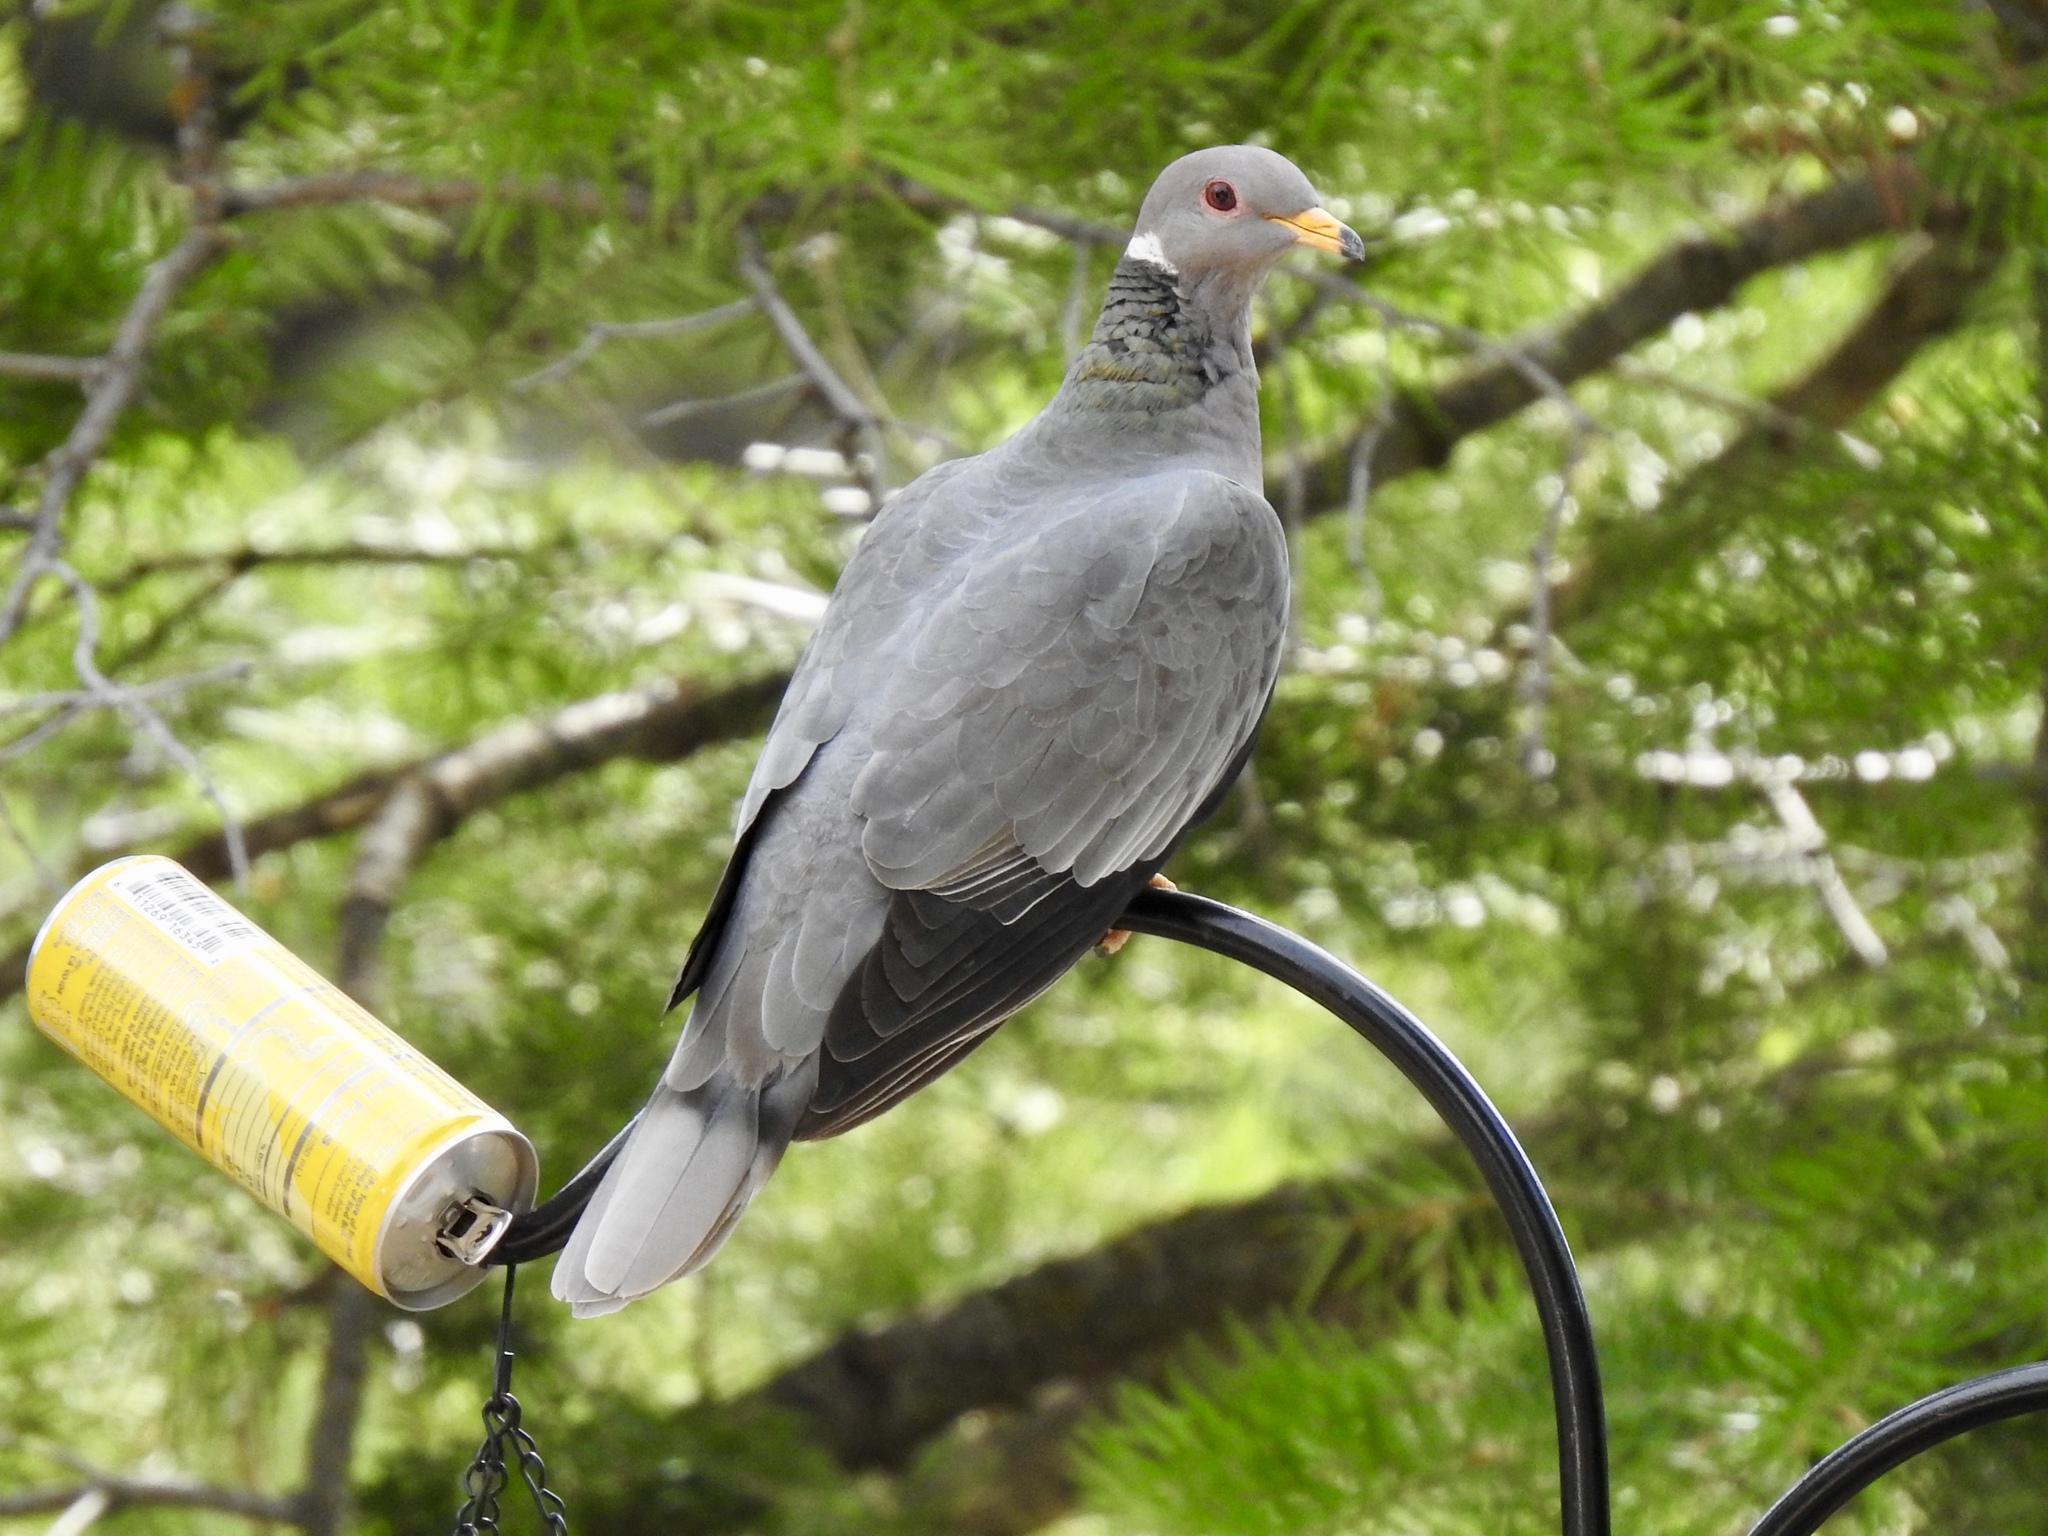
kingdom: Animalia
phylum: Chordata
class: Aves
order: Columbiformes
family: Columbidae
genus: Patagioenas
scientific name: Patagioenas fasciata
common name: Band-tailed pigeon
